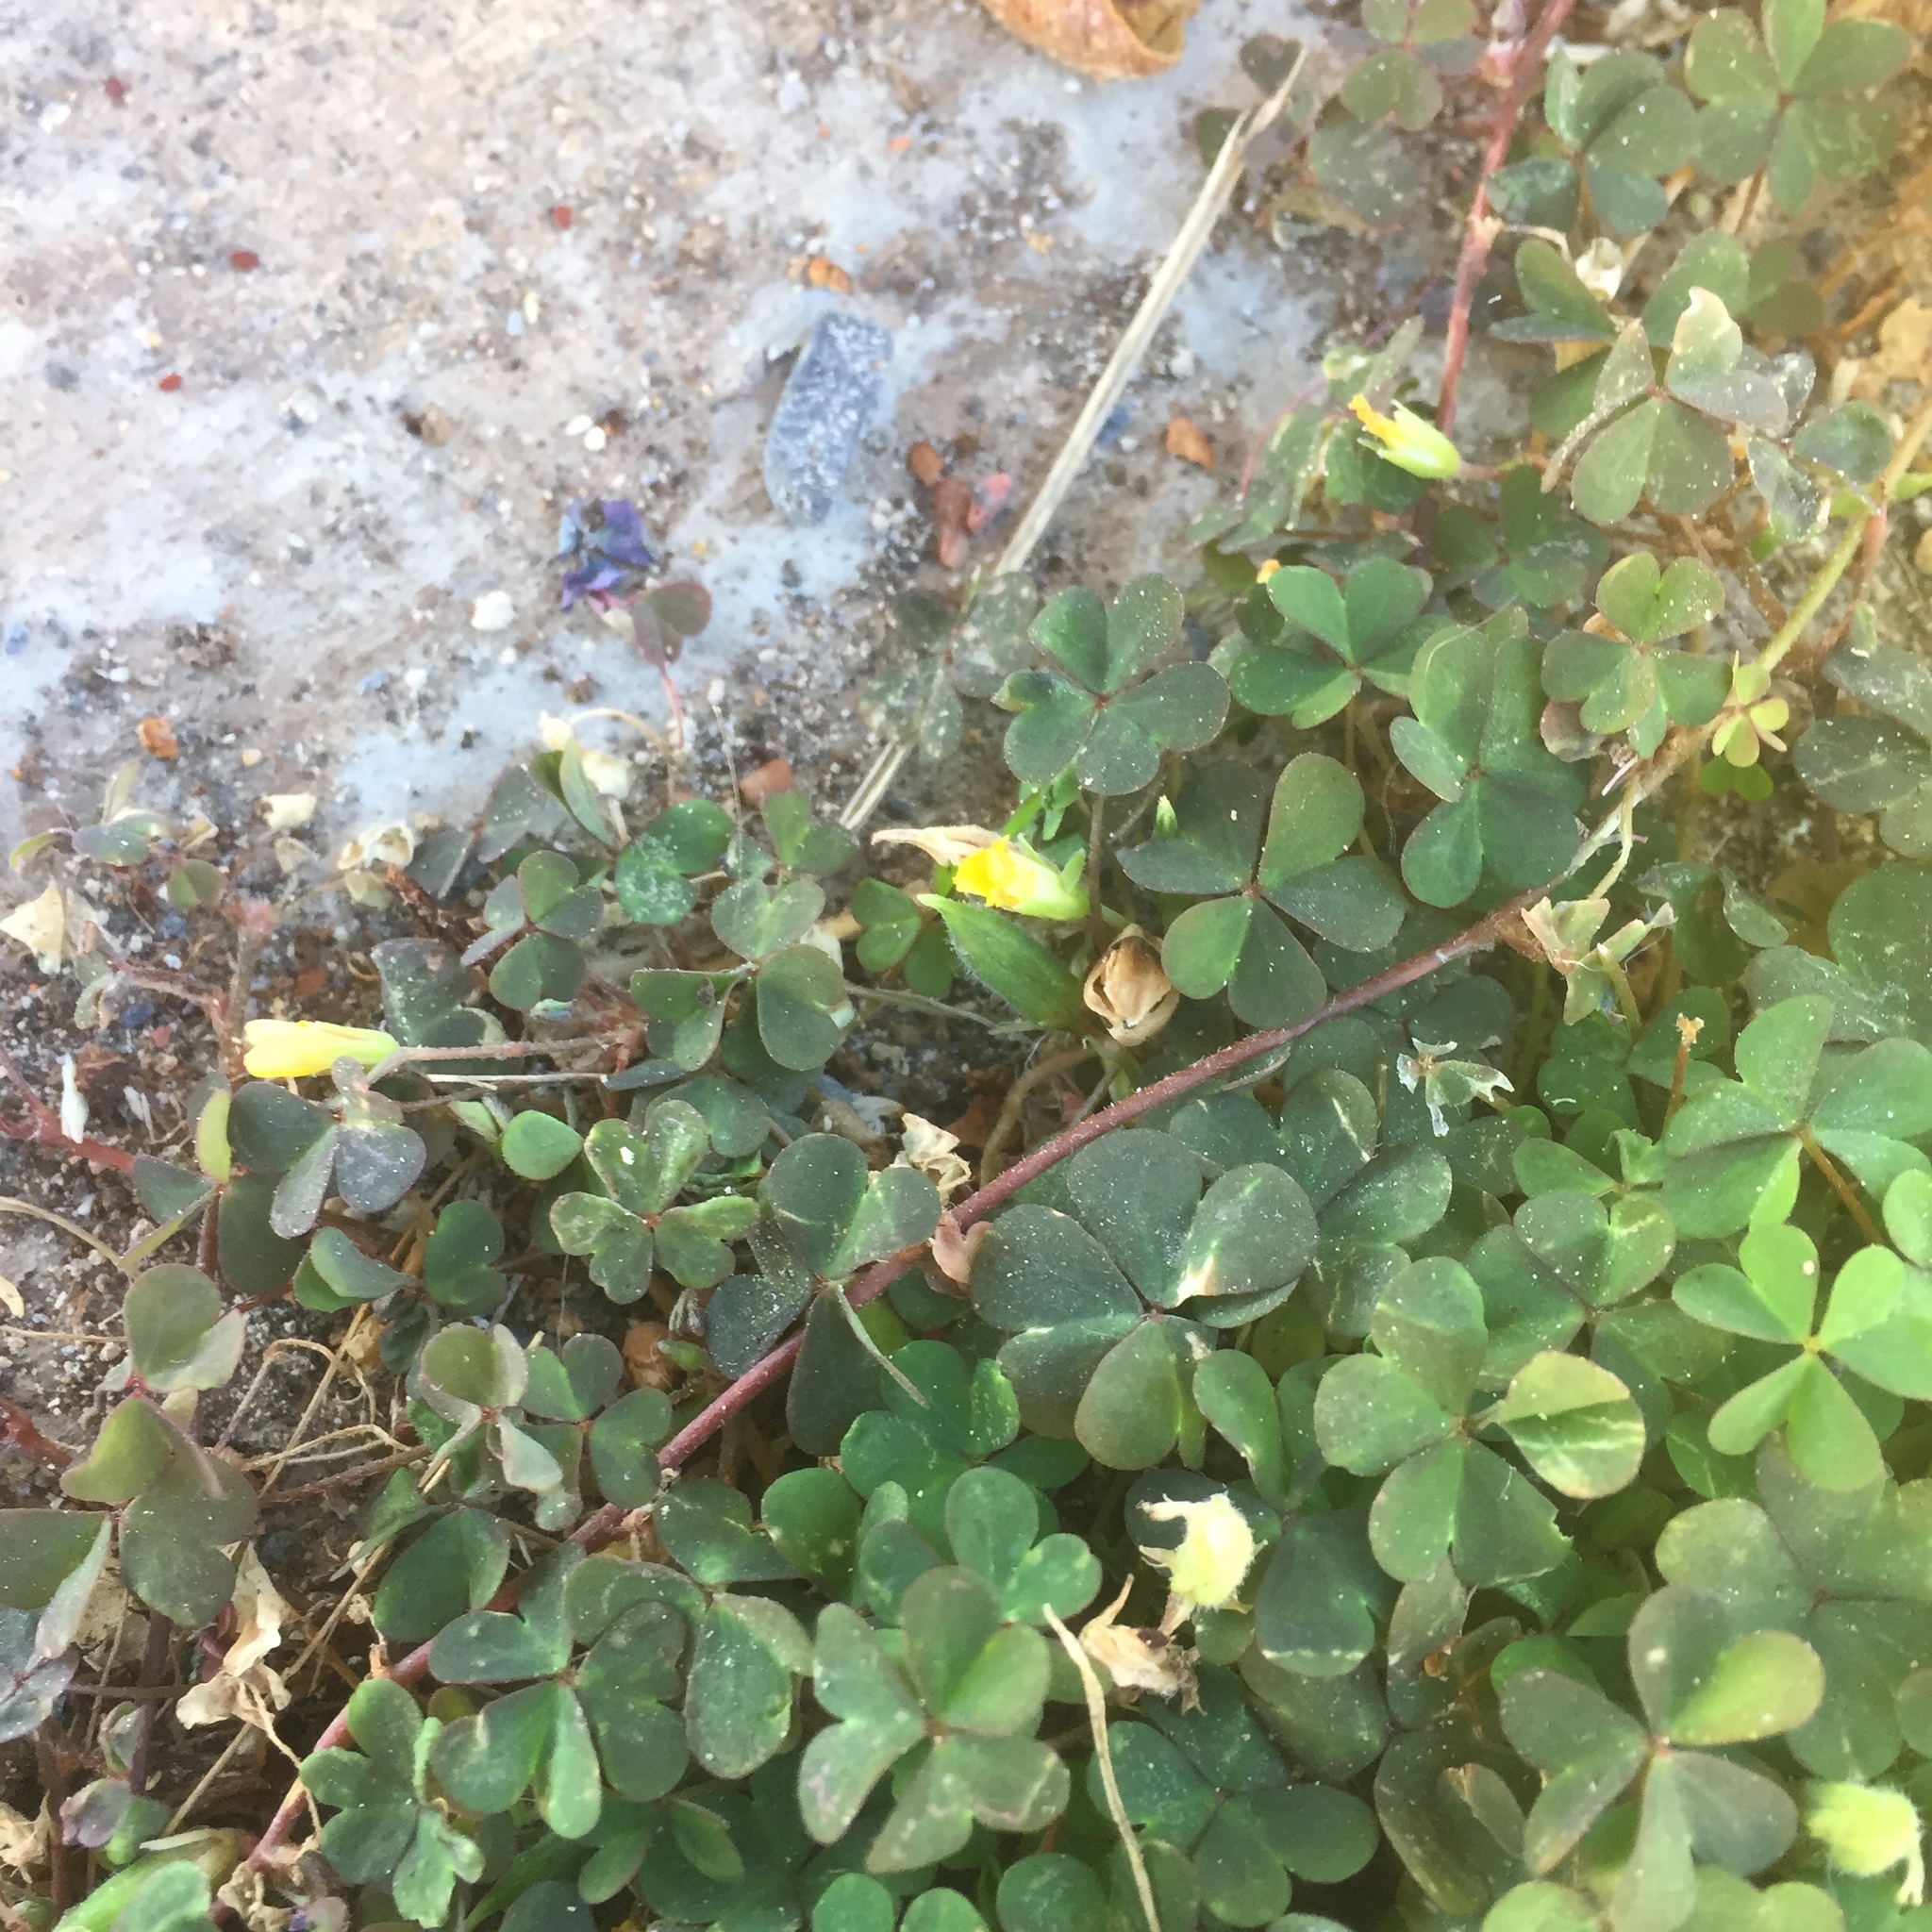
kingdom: Plantae
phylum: Tracheophyta
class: Magnoliopsida
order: Oxalidales
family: Oxalidaceae
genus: Oxalis
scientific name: Oxalis corniculata
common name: Procumbent yellow-sorrel
